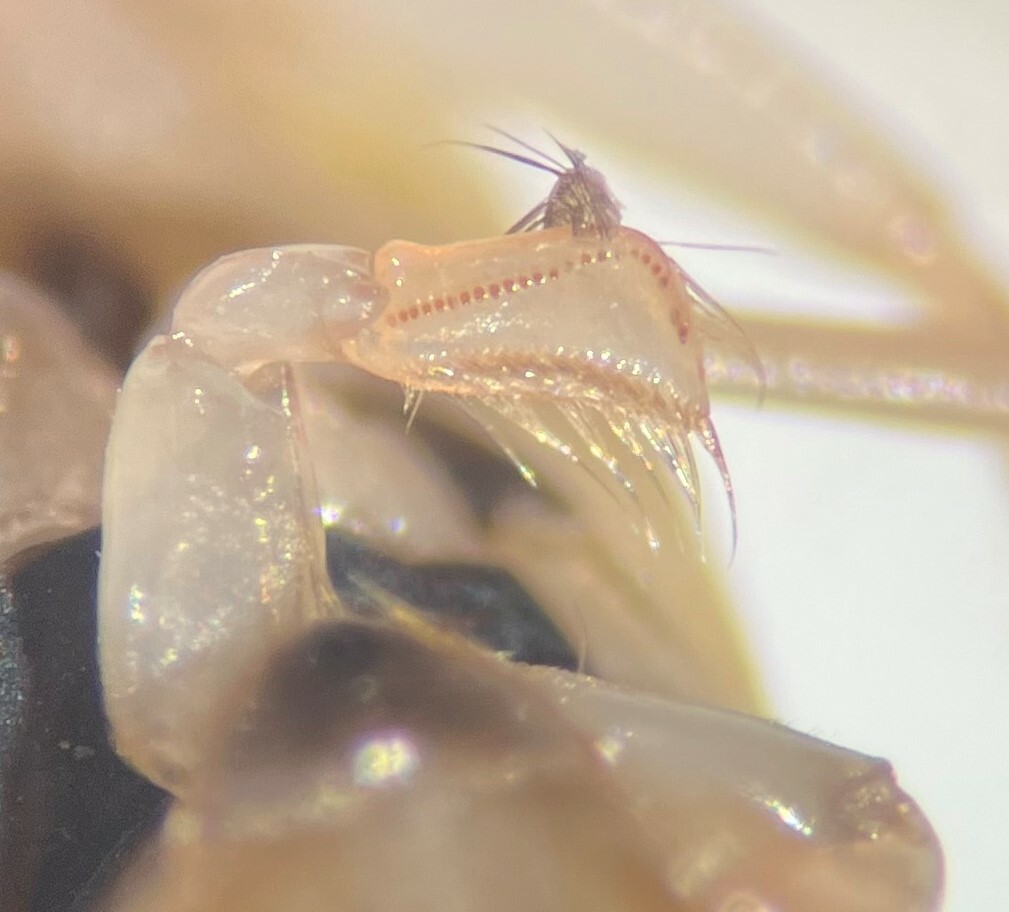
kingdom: Animalia
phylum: Arthropoda
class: Insecta
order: Hemiptera
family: Corixidae
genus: Sigara
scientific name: Sigara johnstoni
